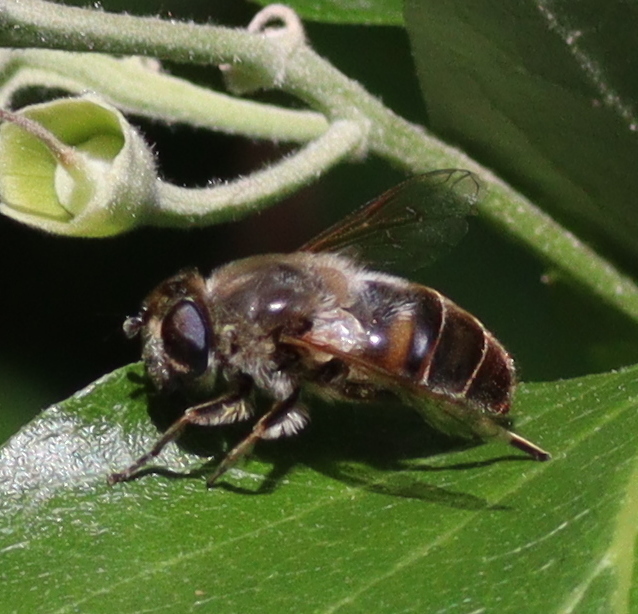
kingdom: Animalia
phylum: Arthropoda
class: Insecta
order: Diptera
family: Syrphidae
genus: Eristalis
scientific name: Eristalis tenax
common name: Drone fly
